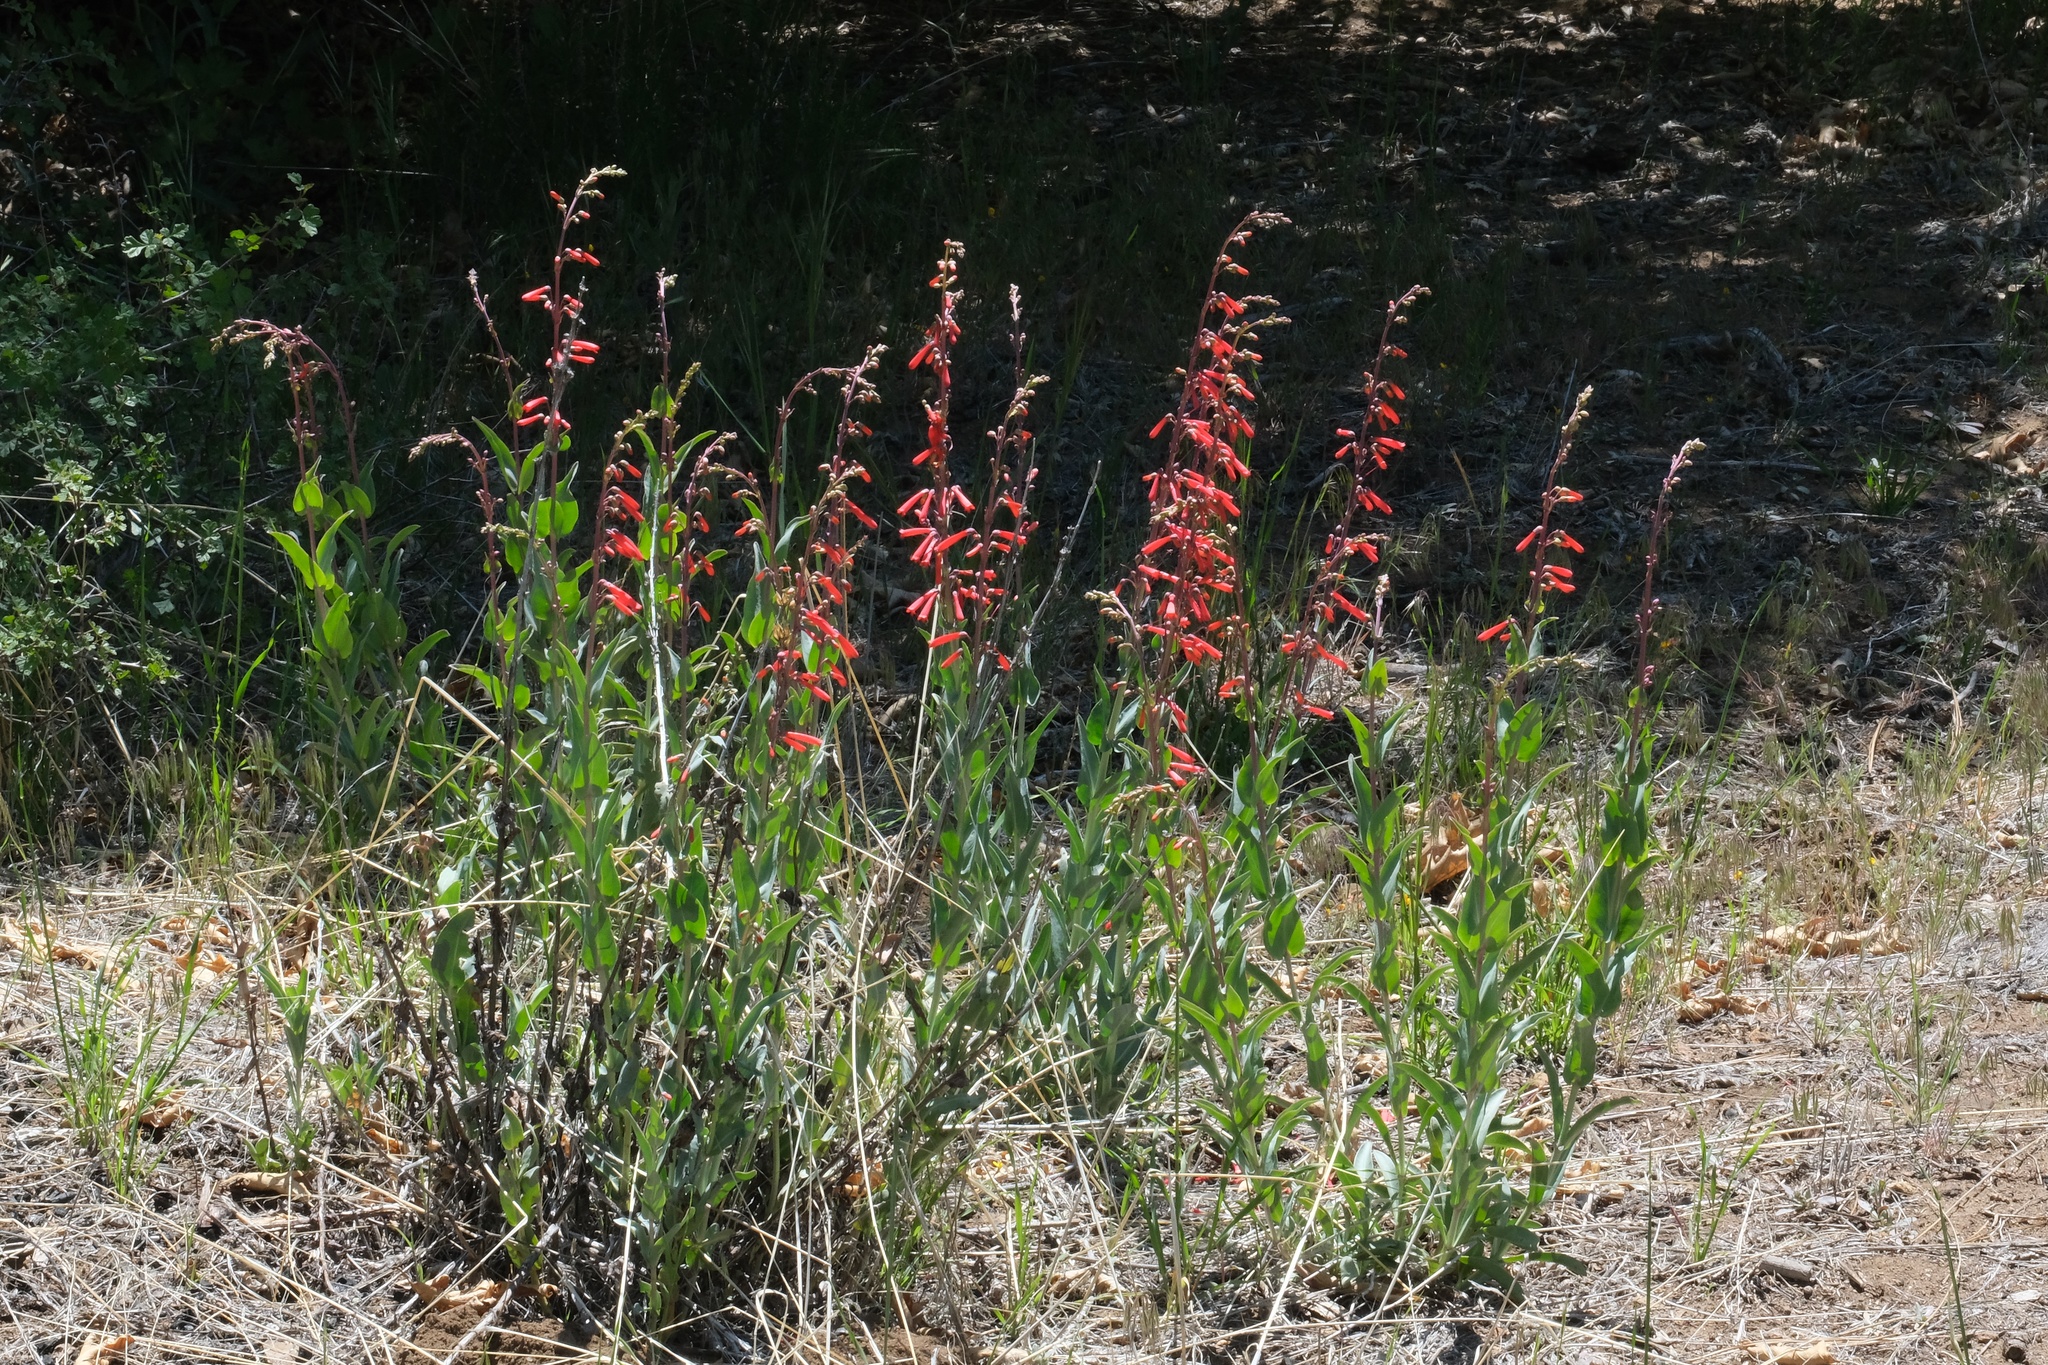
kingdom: Plantae
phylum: Tracheophyta
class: Magnoliopsida
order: Lamiales
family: Plantaginaceae
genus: Penstemon
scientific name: Penstemon centranthifolius
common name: Scarlet bugler
